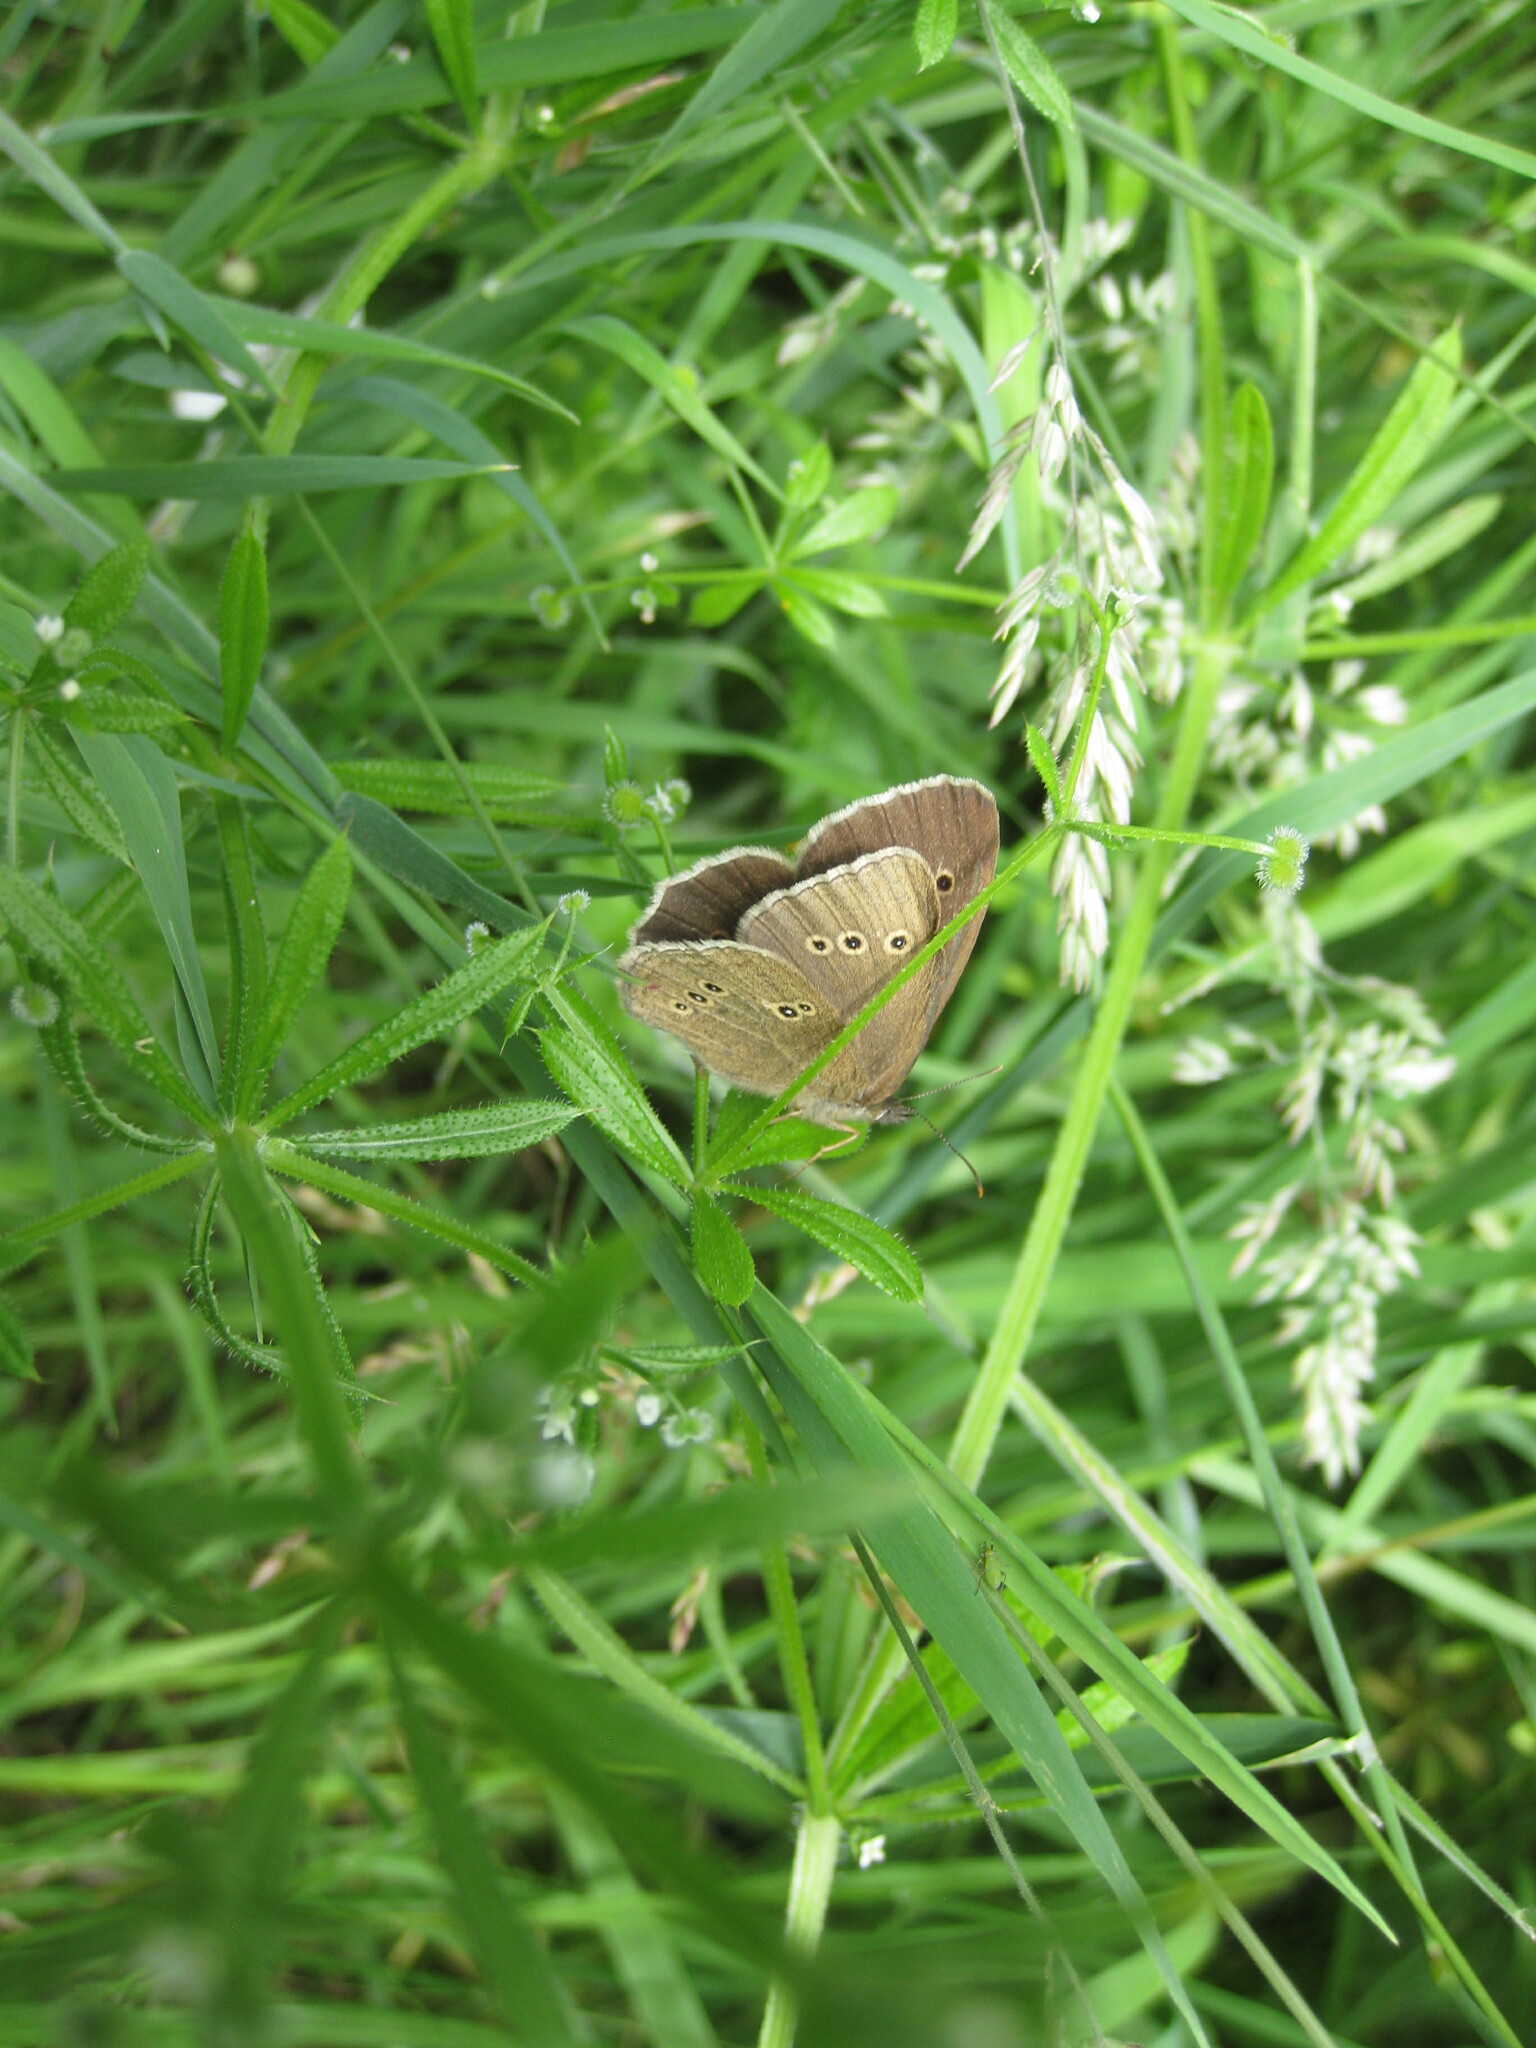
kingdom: Animalia
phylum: Arthropoda
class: Insecta
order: Lepidoptera
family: Nymphalidae
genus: Aphantopus
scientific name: Aphantopus hyperantus
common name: Ringlet
